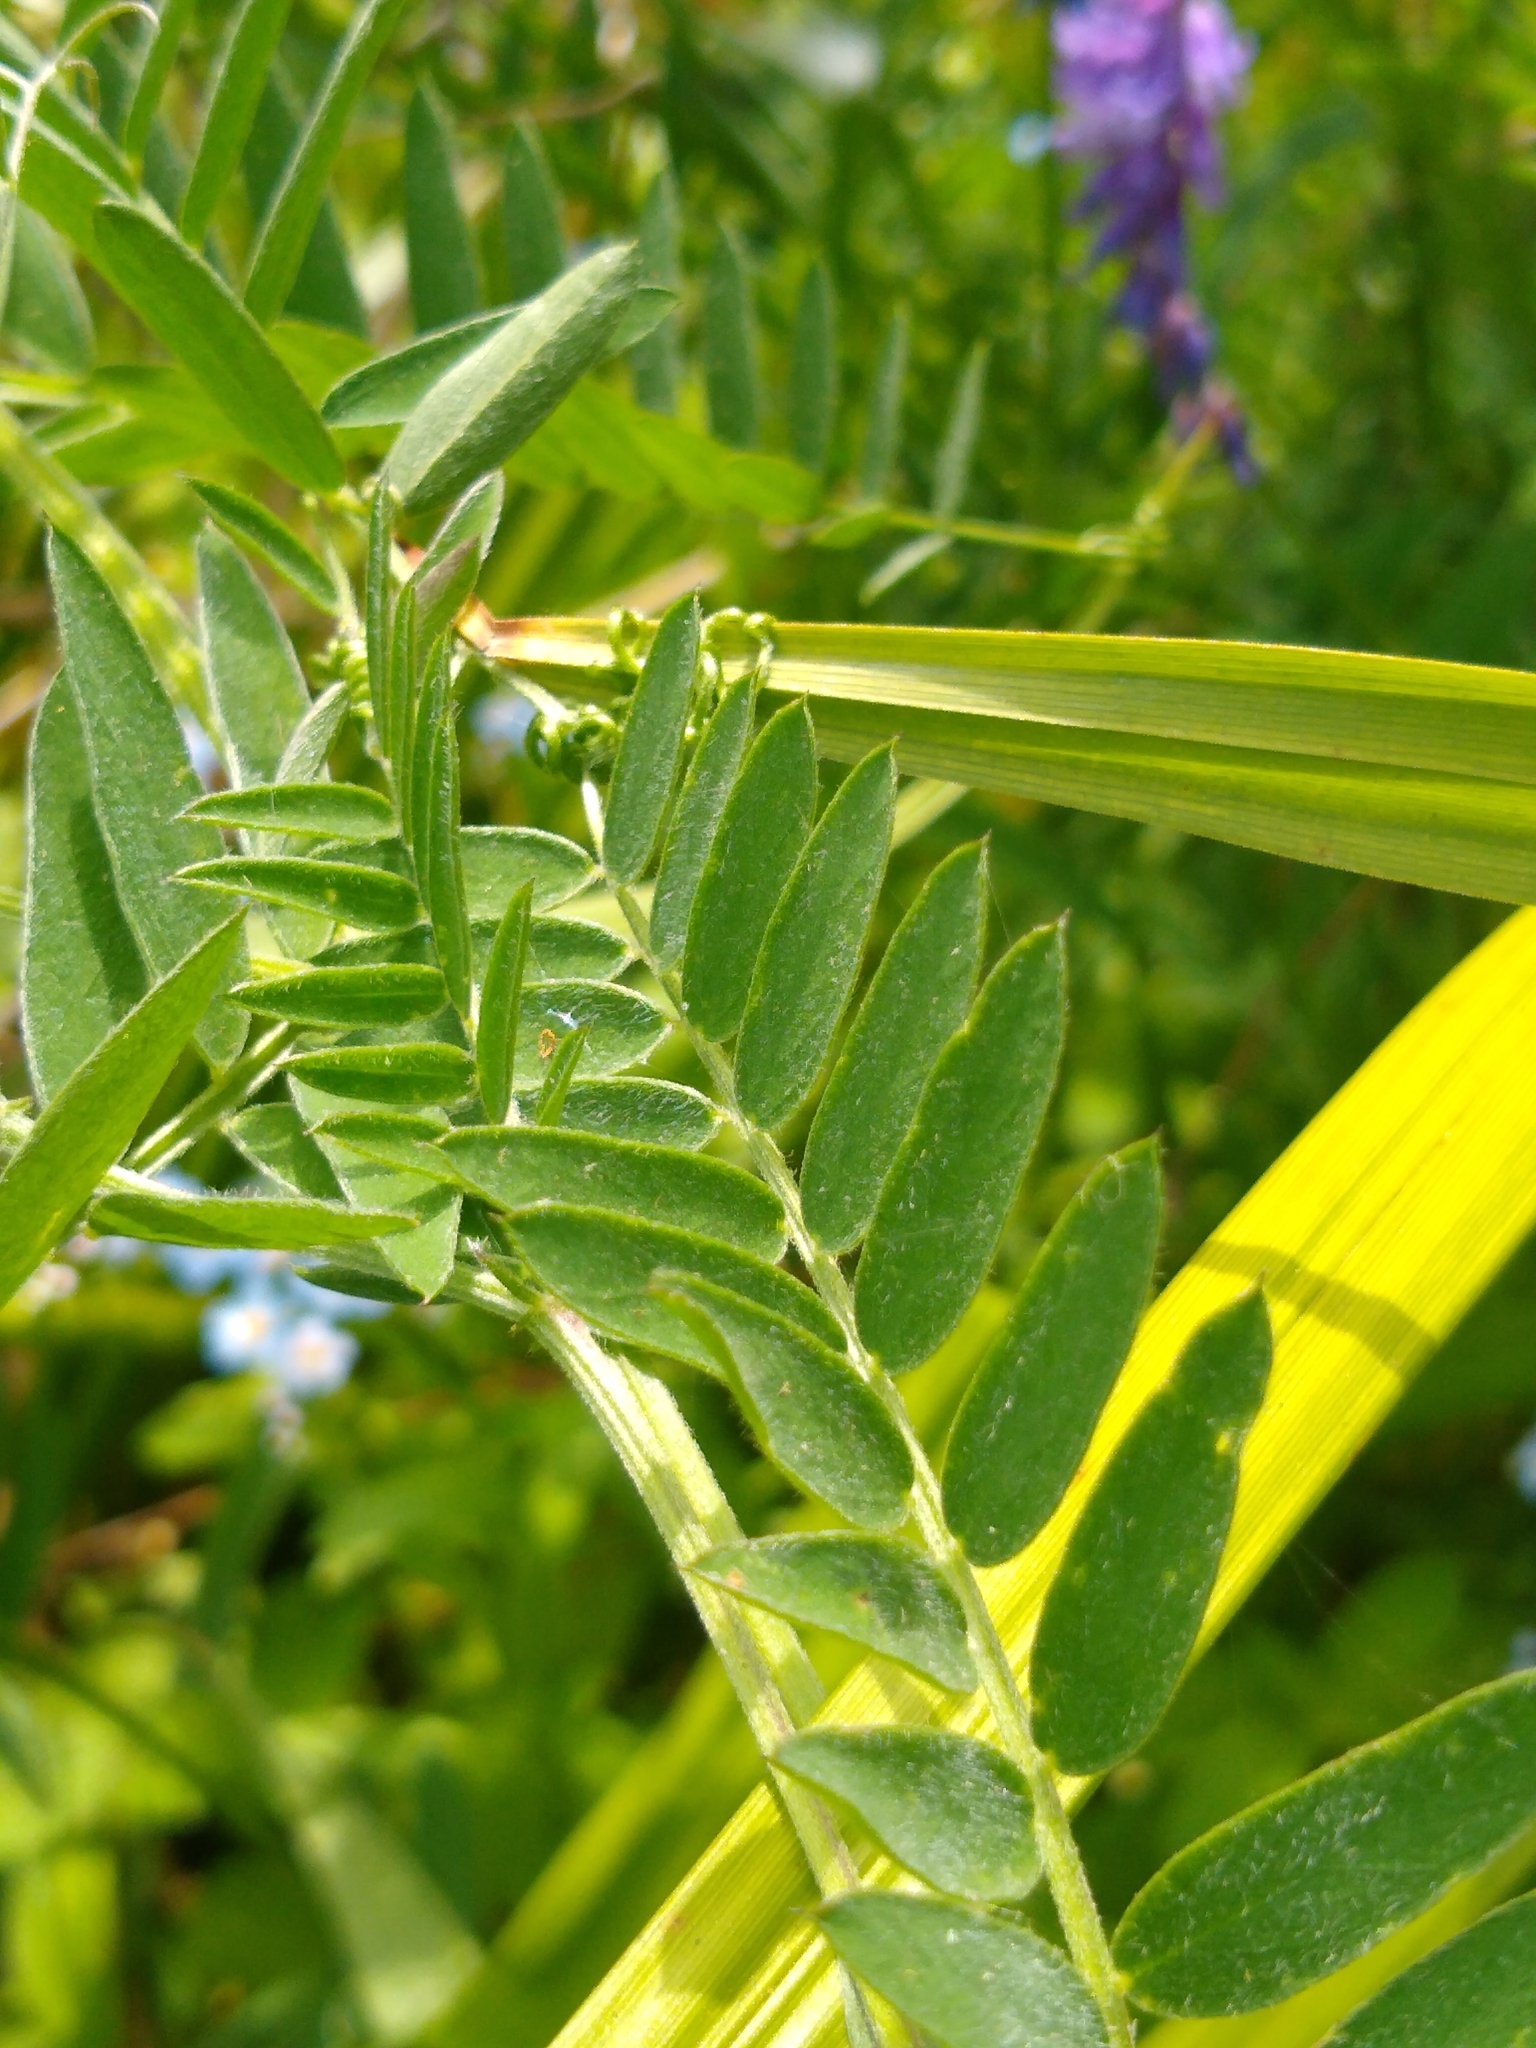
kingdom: Plantae
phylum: Tracheophyta
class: Magnoliopsida
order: Fabales
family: Fabaceae
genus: Vicia
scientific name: Vicia cracca
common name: Bird vetch
